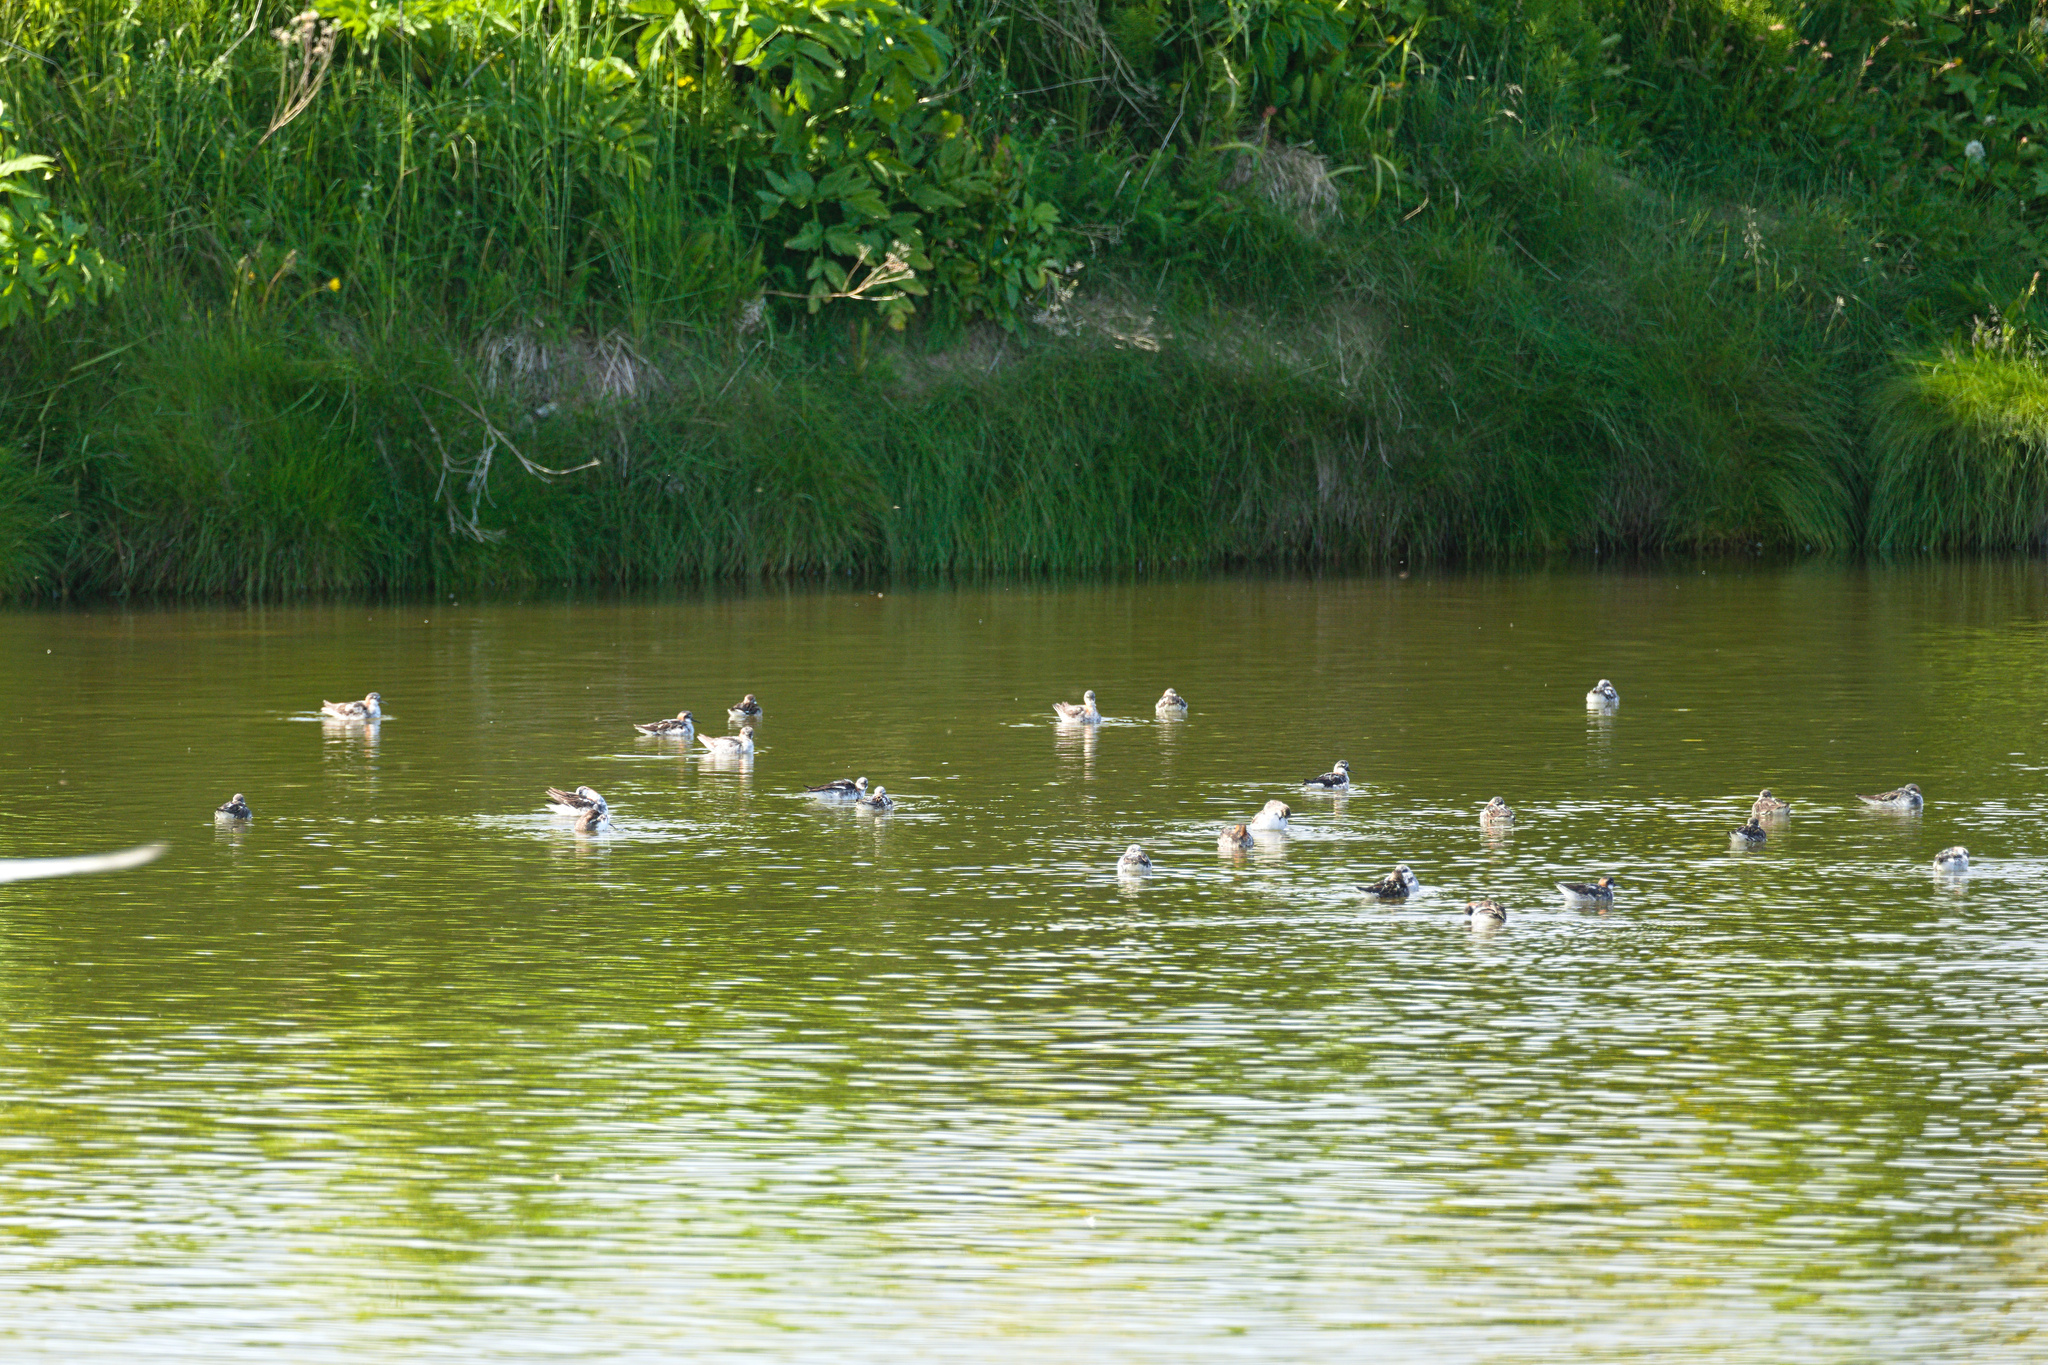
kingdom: Animalia
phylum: Chordata
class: Aves
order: Charadriiformes
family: Scolopacidae
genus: Phalaropus
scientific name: Phalaropus lobatus
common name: Red-necked phalarope
